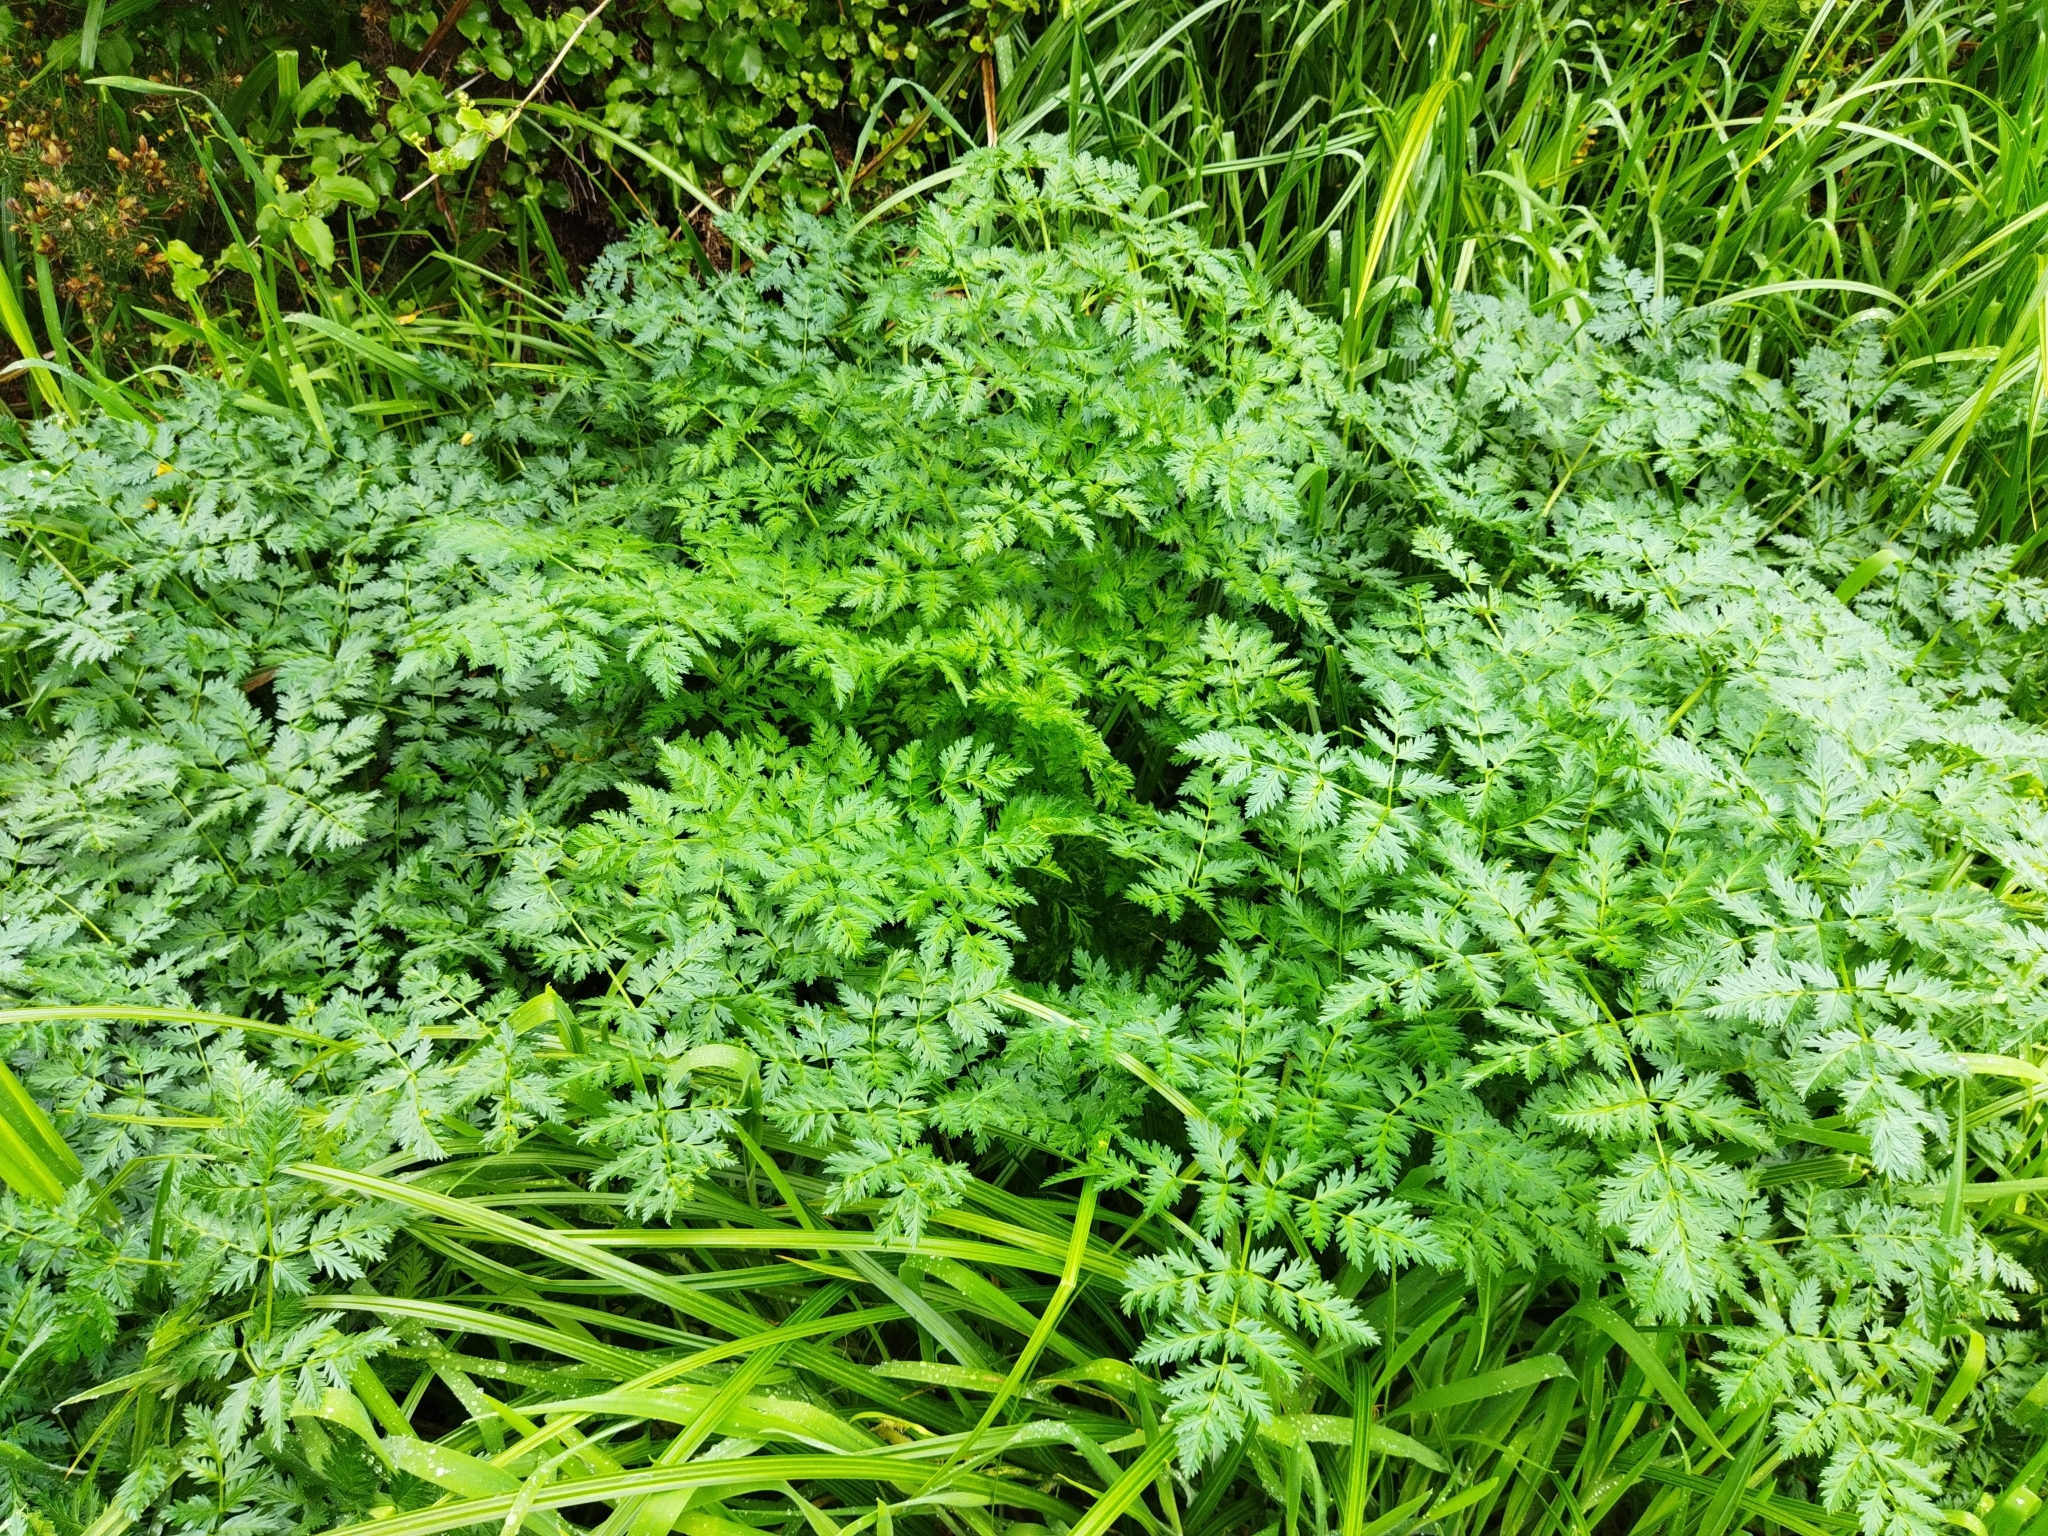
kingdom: Plantae
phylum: Tracheophyta
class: Magnoliopsida
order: Apiales
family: Apiaceae
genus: Conium
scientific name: Conium maculatum
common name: Hemlock
